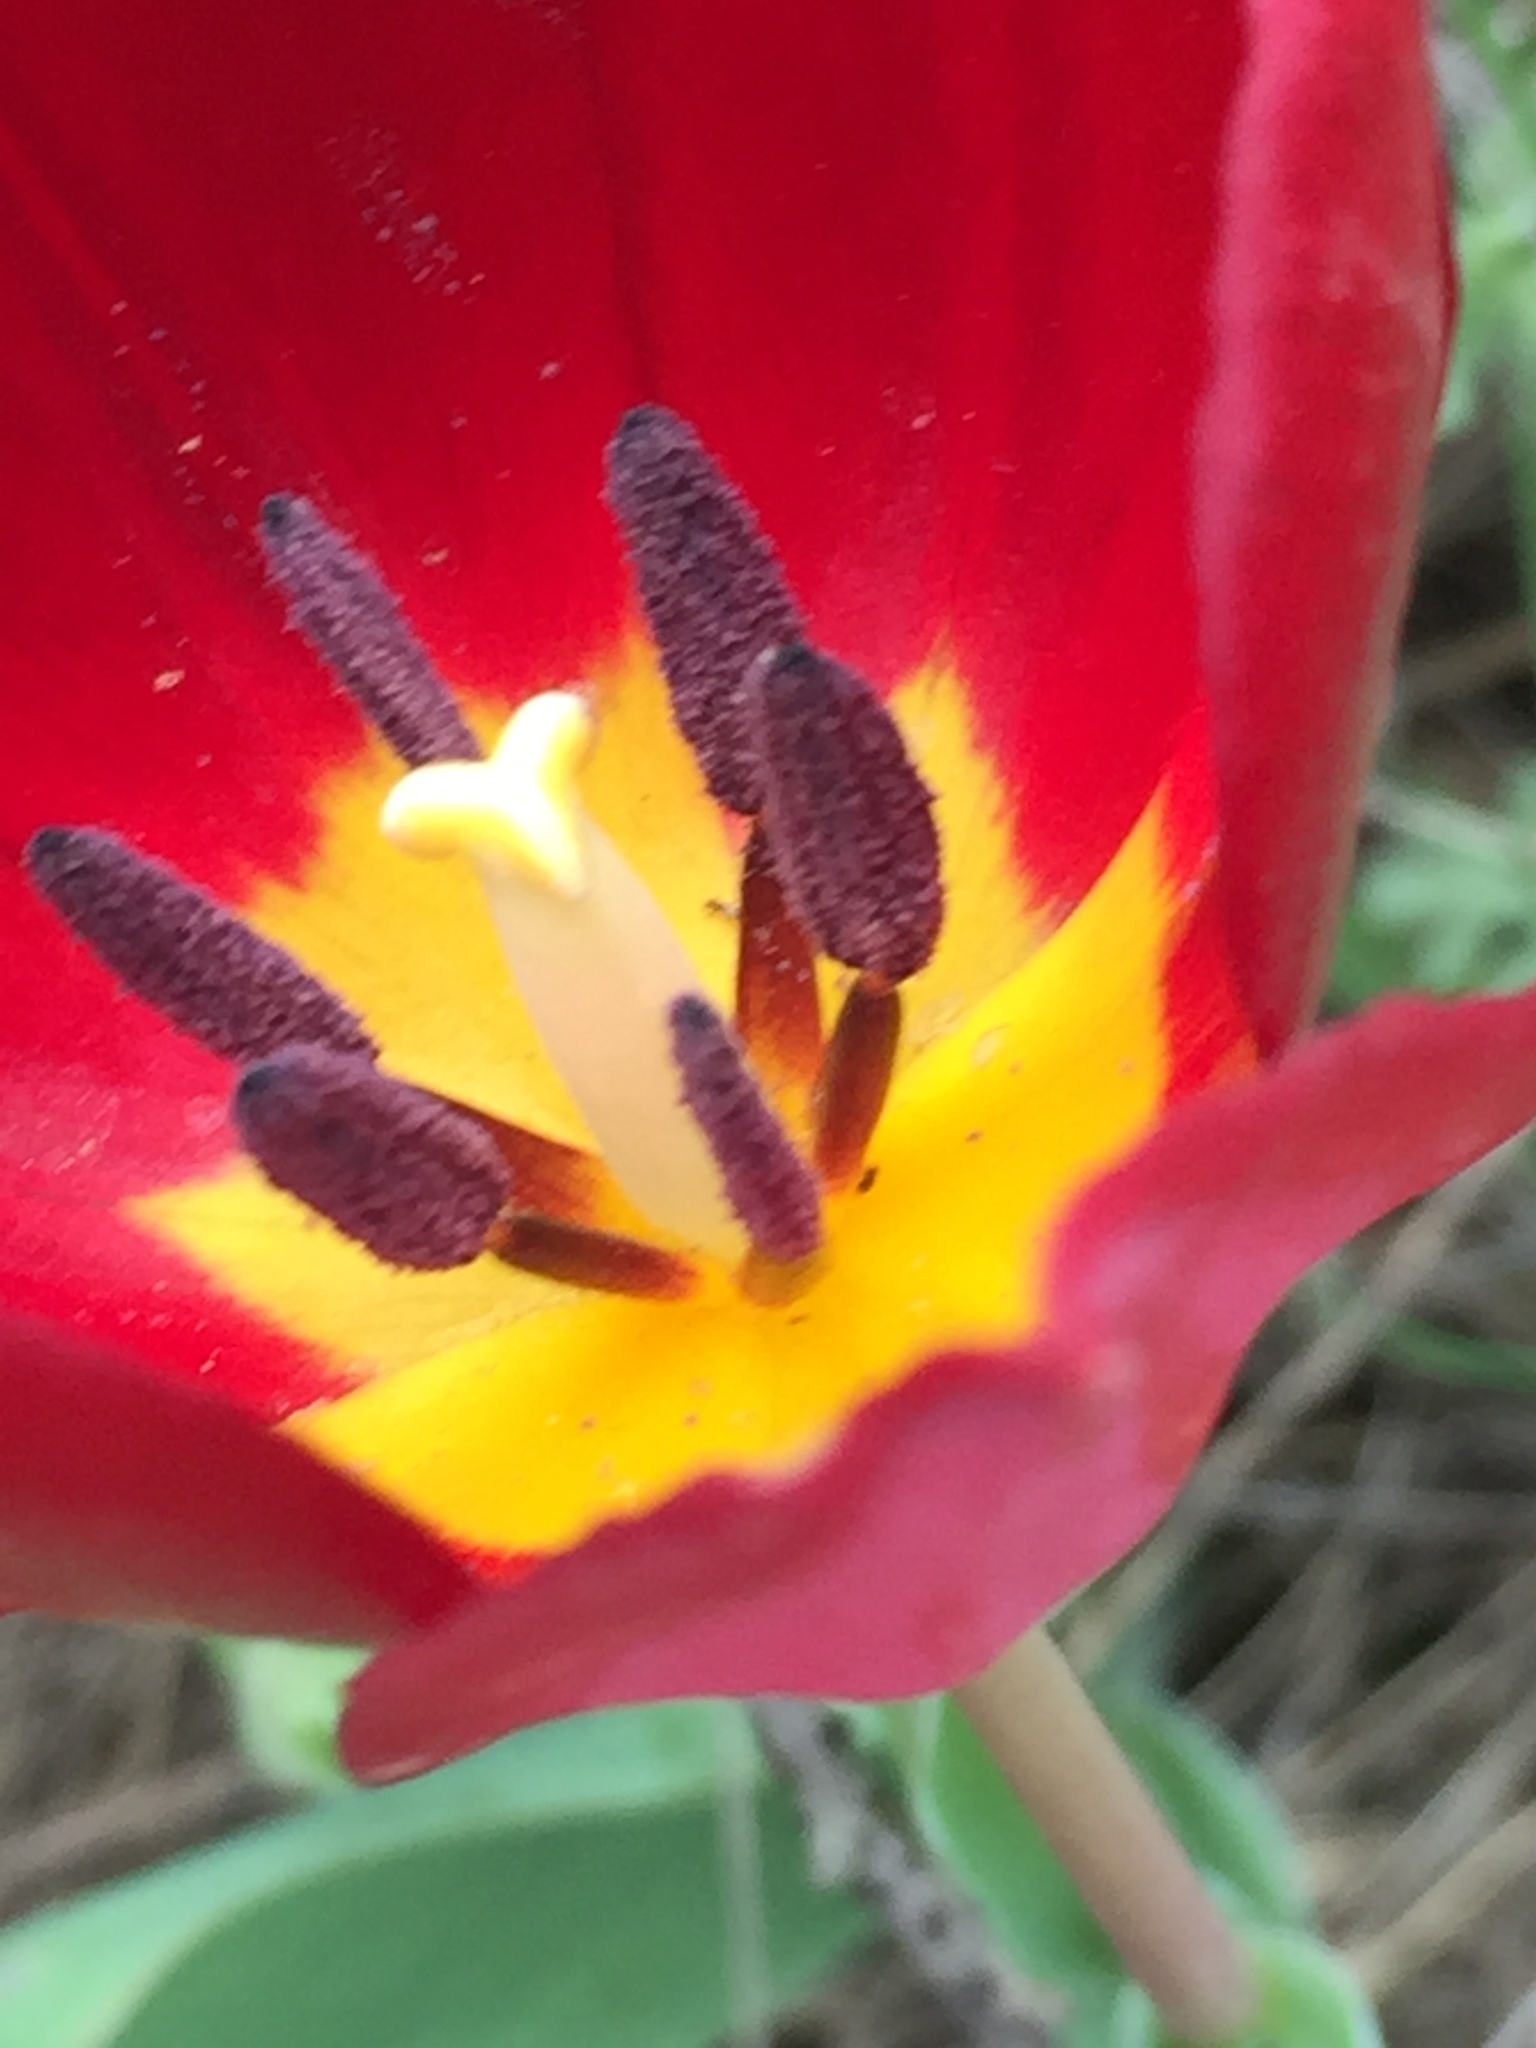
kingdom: Plantae
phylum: Tracheophyta
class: Liliopsida
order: Liliales
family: Liliaceae
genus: Tulipa
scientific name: Tulipa suaveolens
